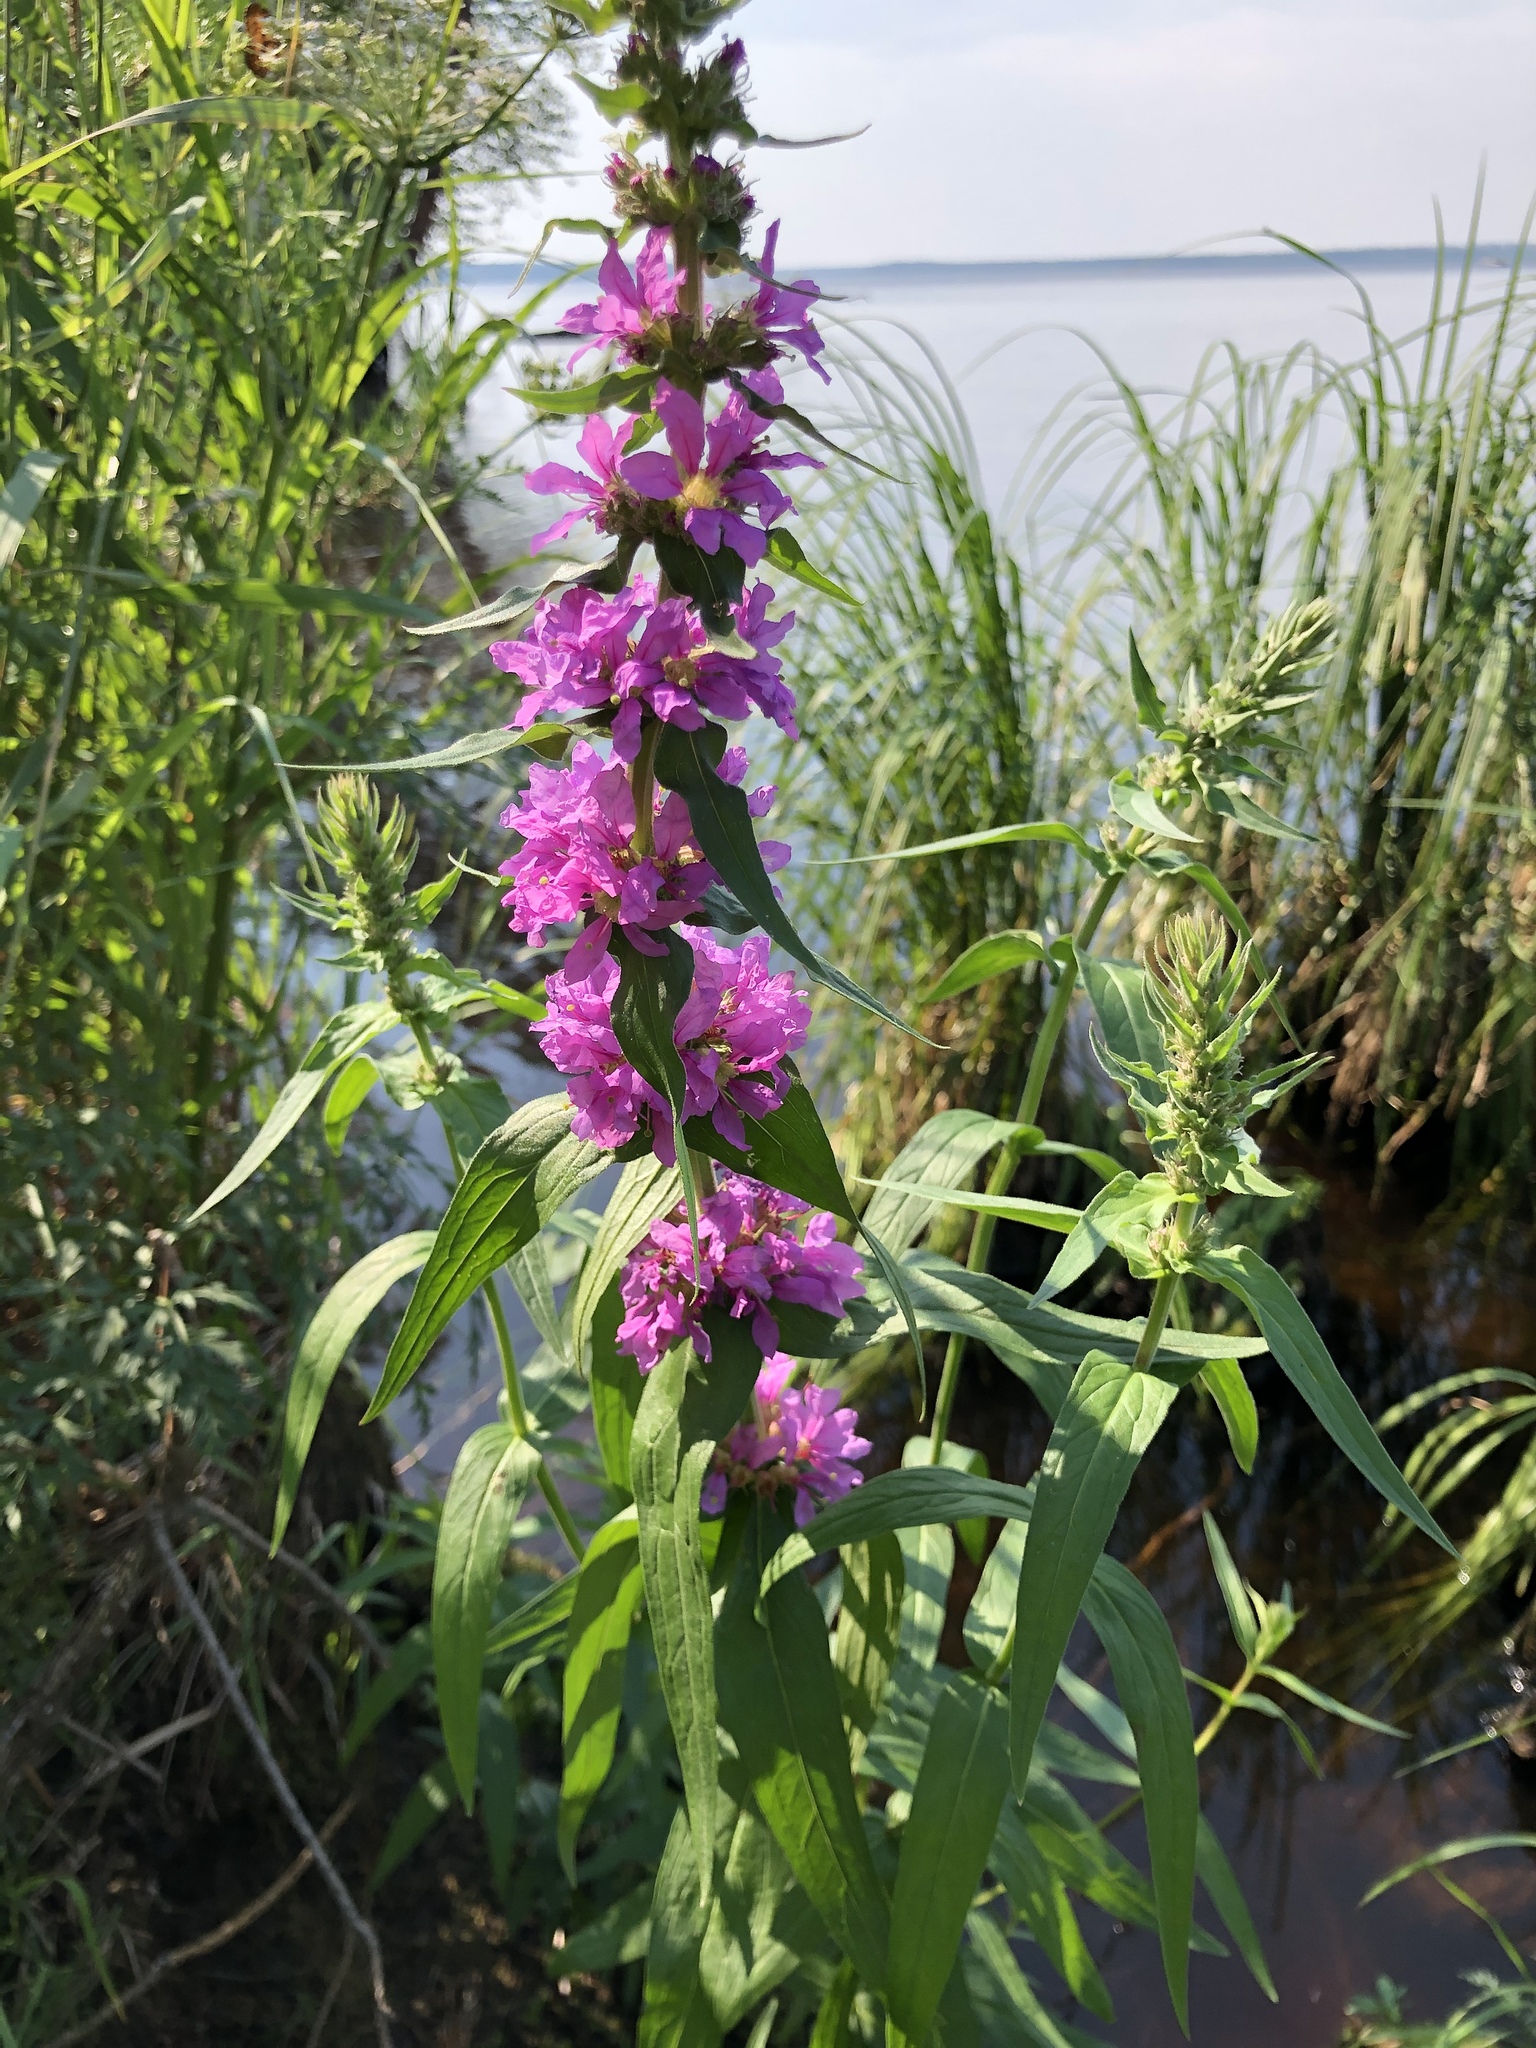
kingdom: Plantae
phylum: Tracheophyta
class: Magnoliopsida
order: Myrtales
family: Lythraceae
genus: Lythrum
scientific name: Lythrum salicaria
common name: Purple loosestrife
